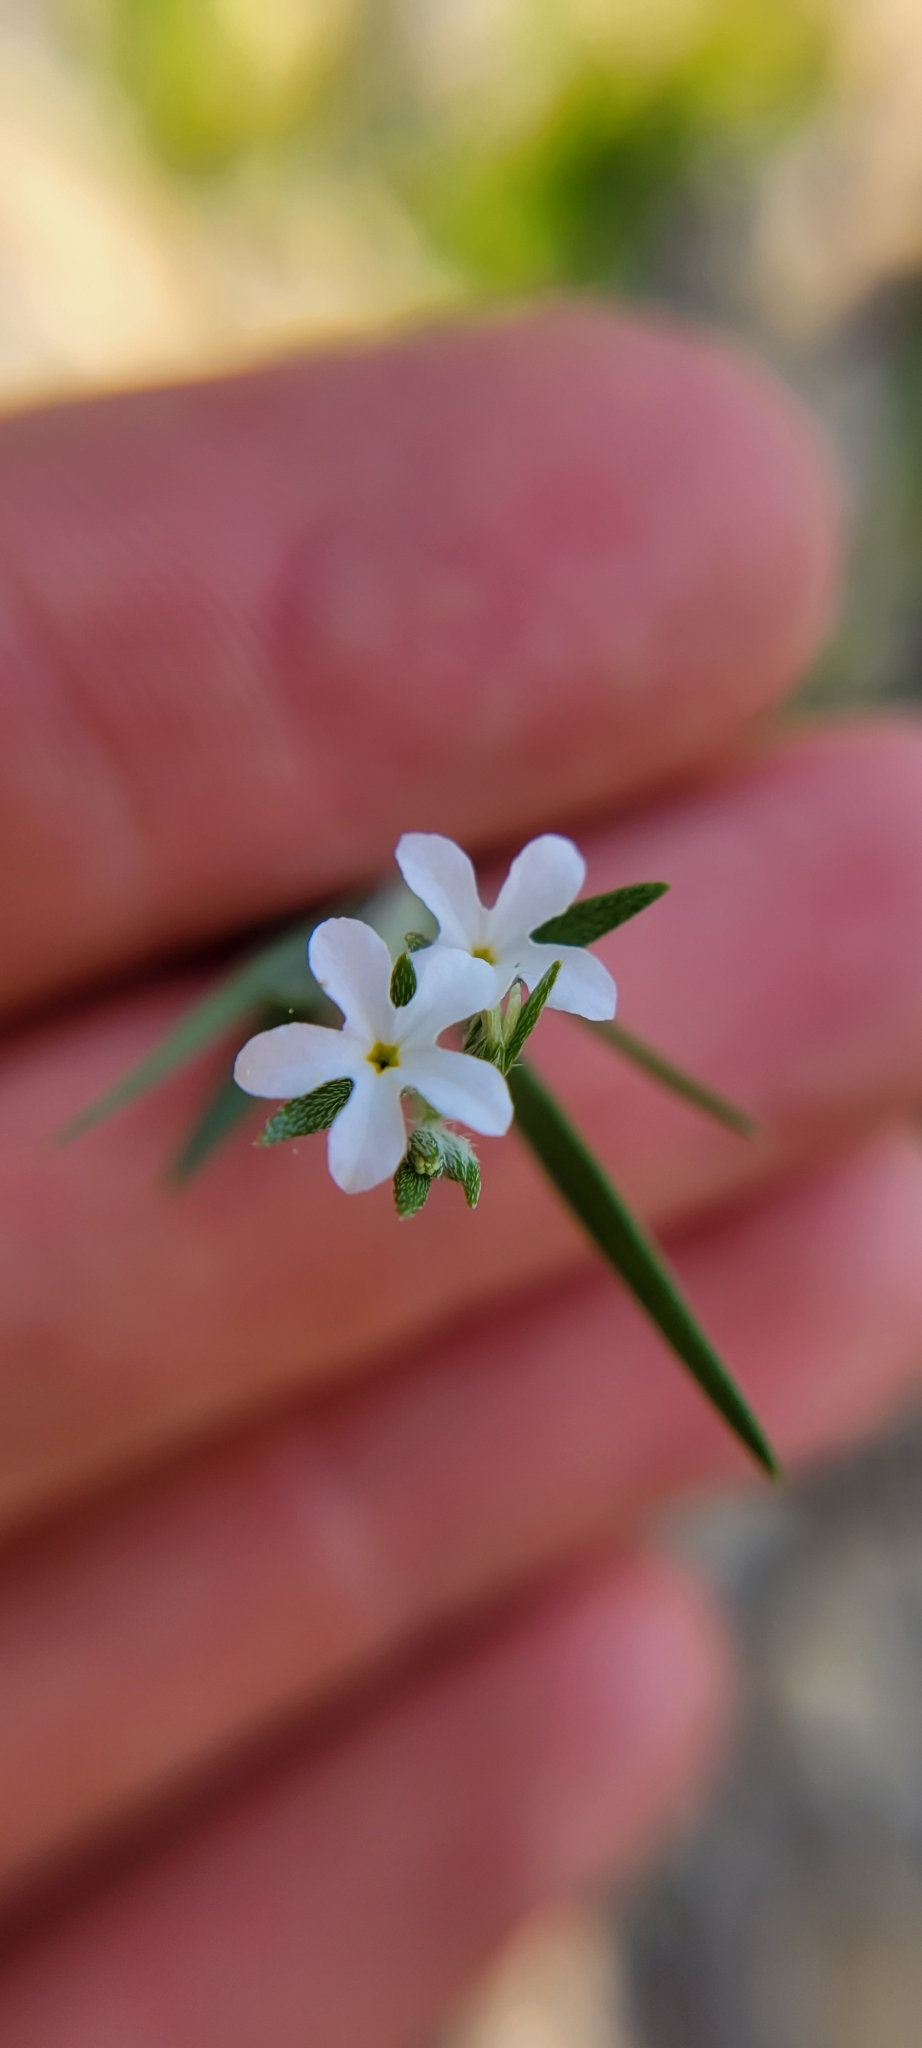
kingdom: Plantae
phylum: Tracheophyta
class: Magnoliopsida
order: Boraginales
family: Heliotropiaceae
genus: Euploca
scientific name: Euploca tenella
